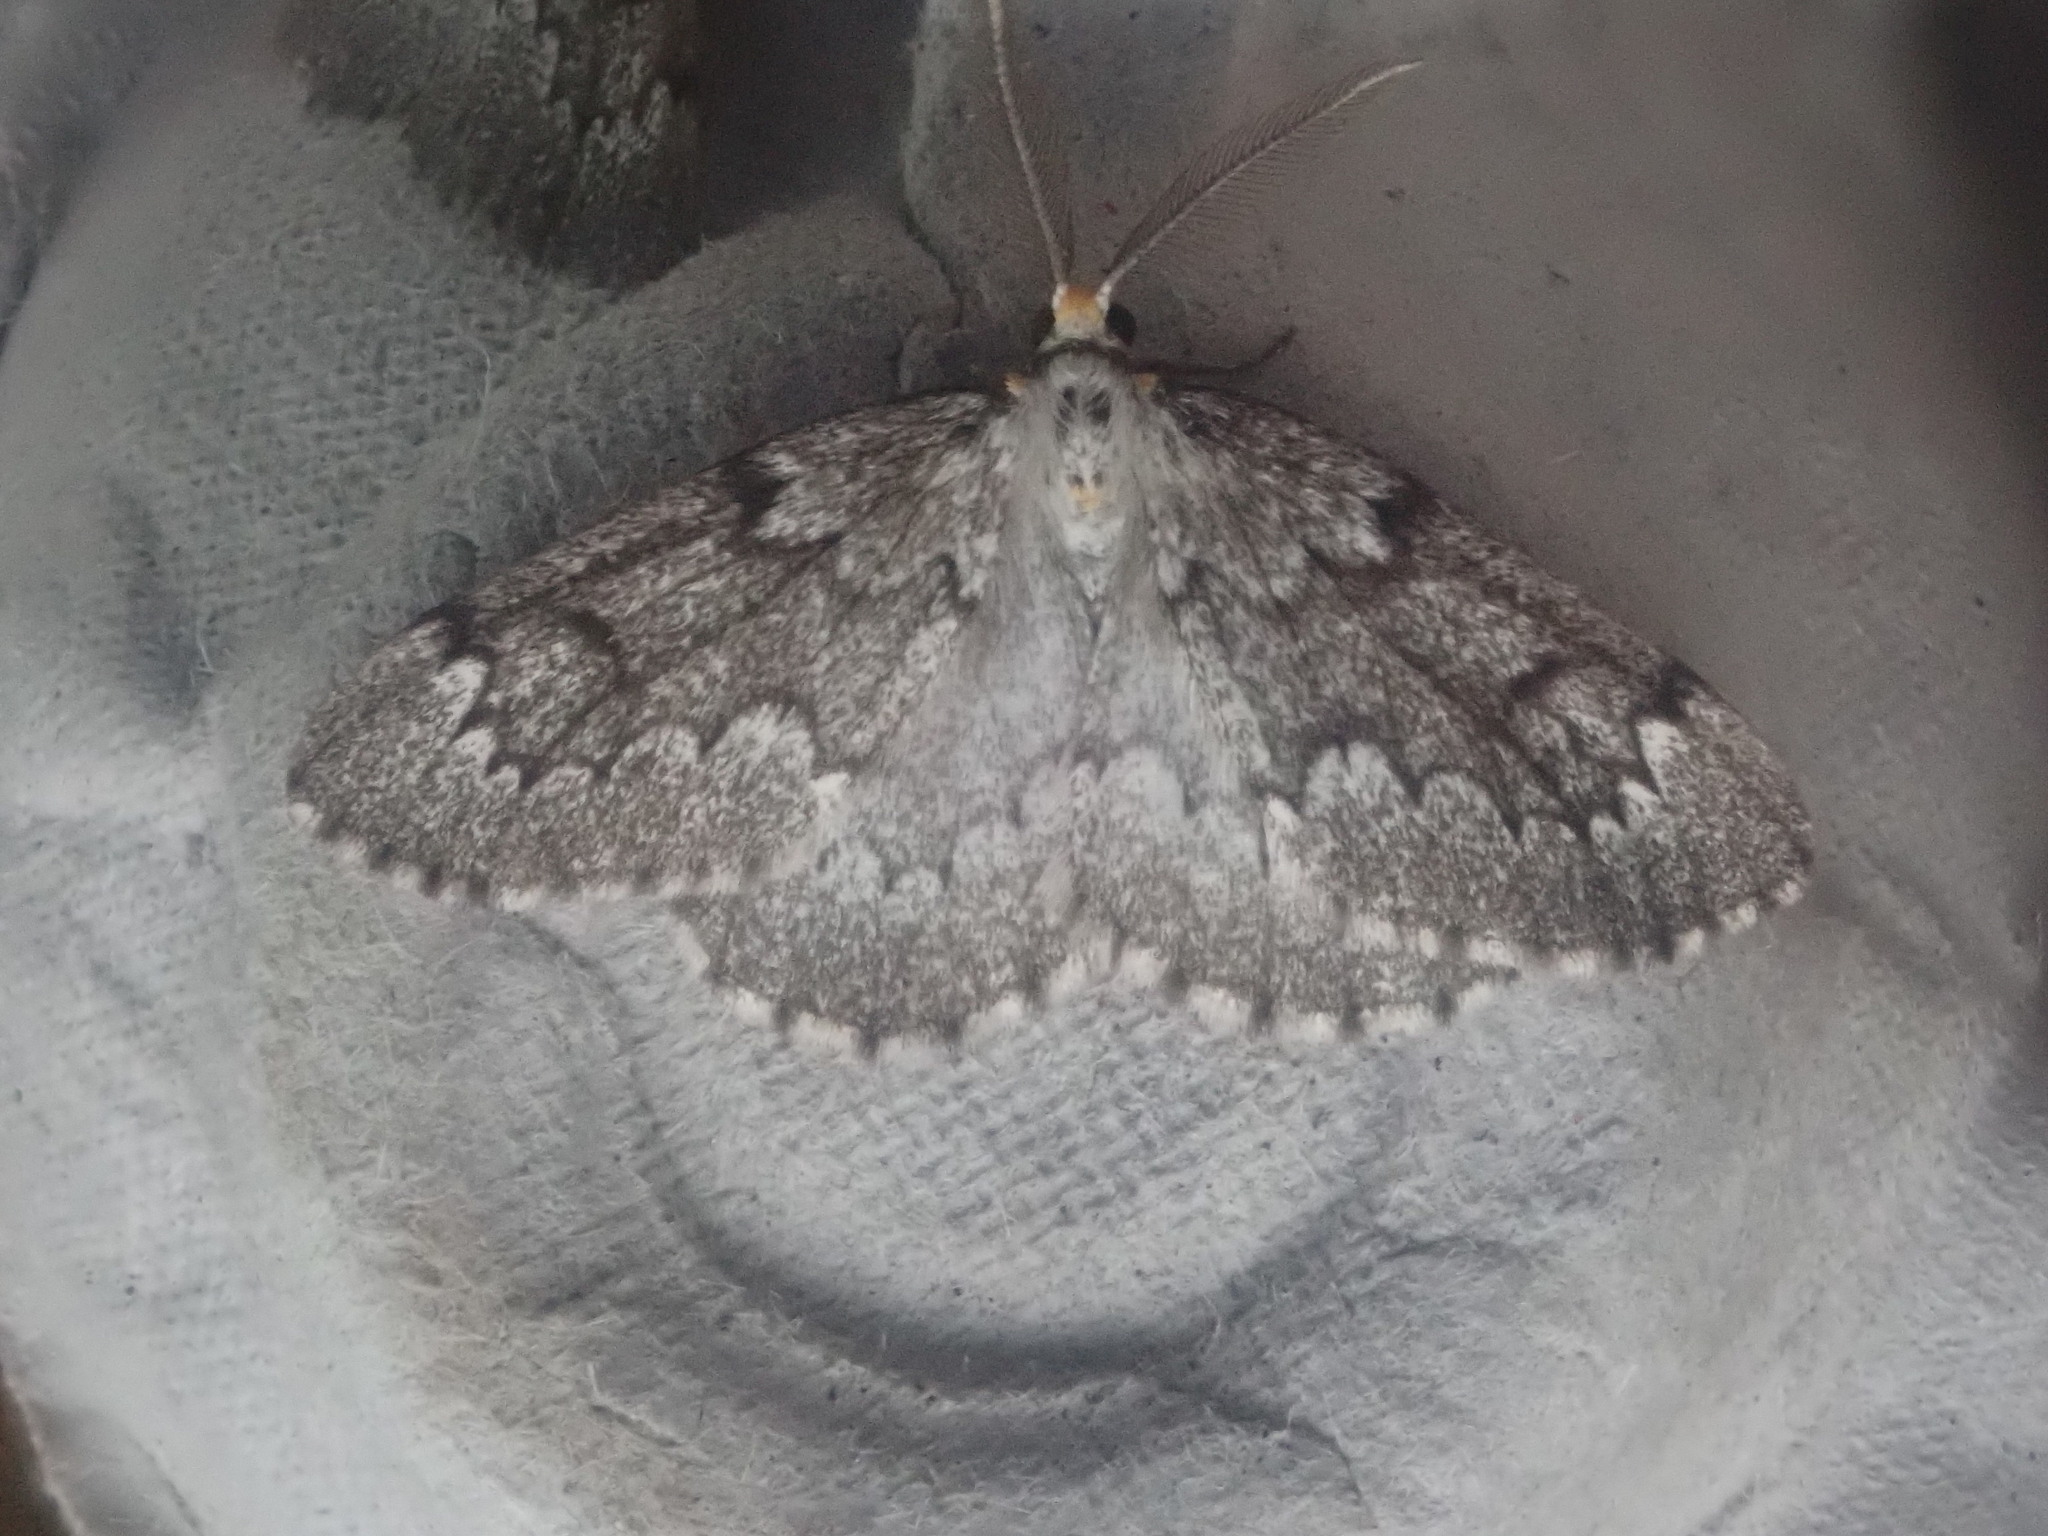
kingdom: Animalia
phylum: Arthropoda
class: Insecta
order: Lepidoptera
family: Geometridae
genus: Nepytia
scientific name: Nepytia canosaria
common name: False hemlock looper
